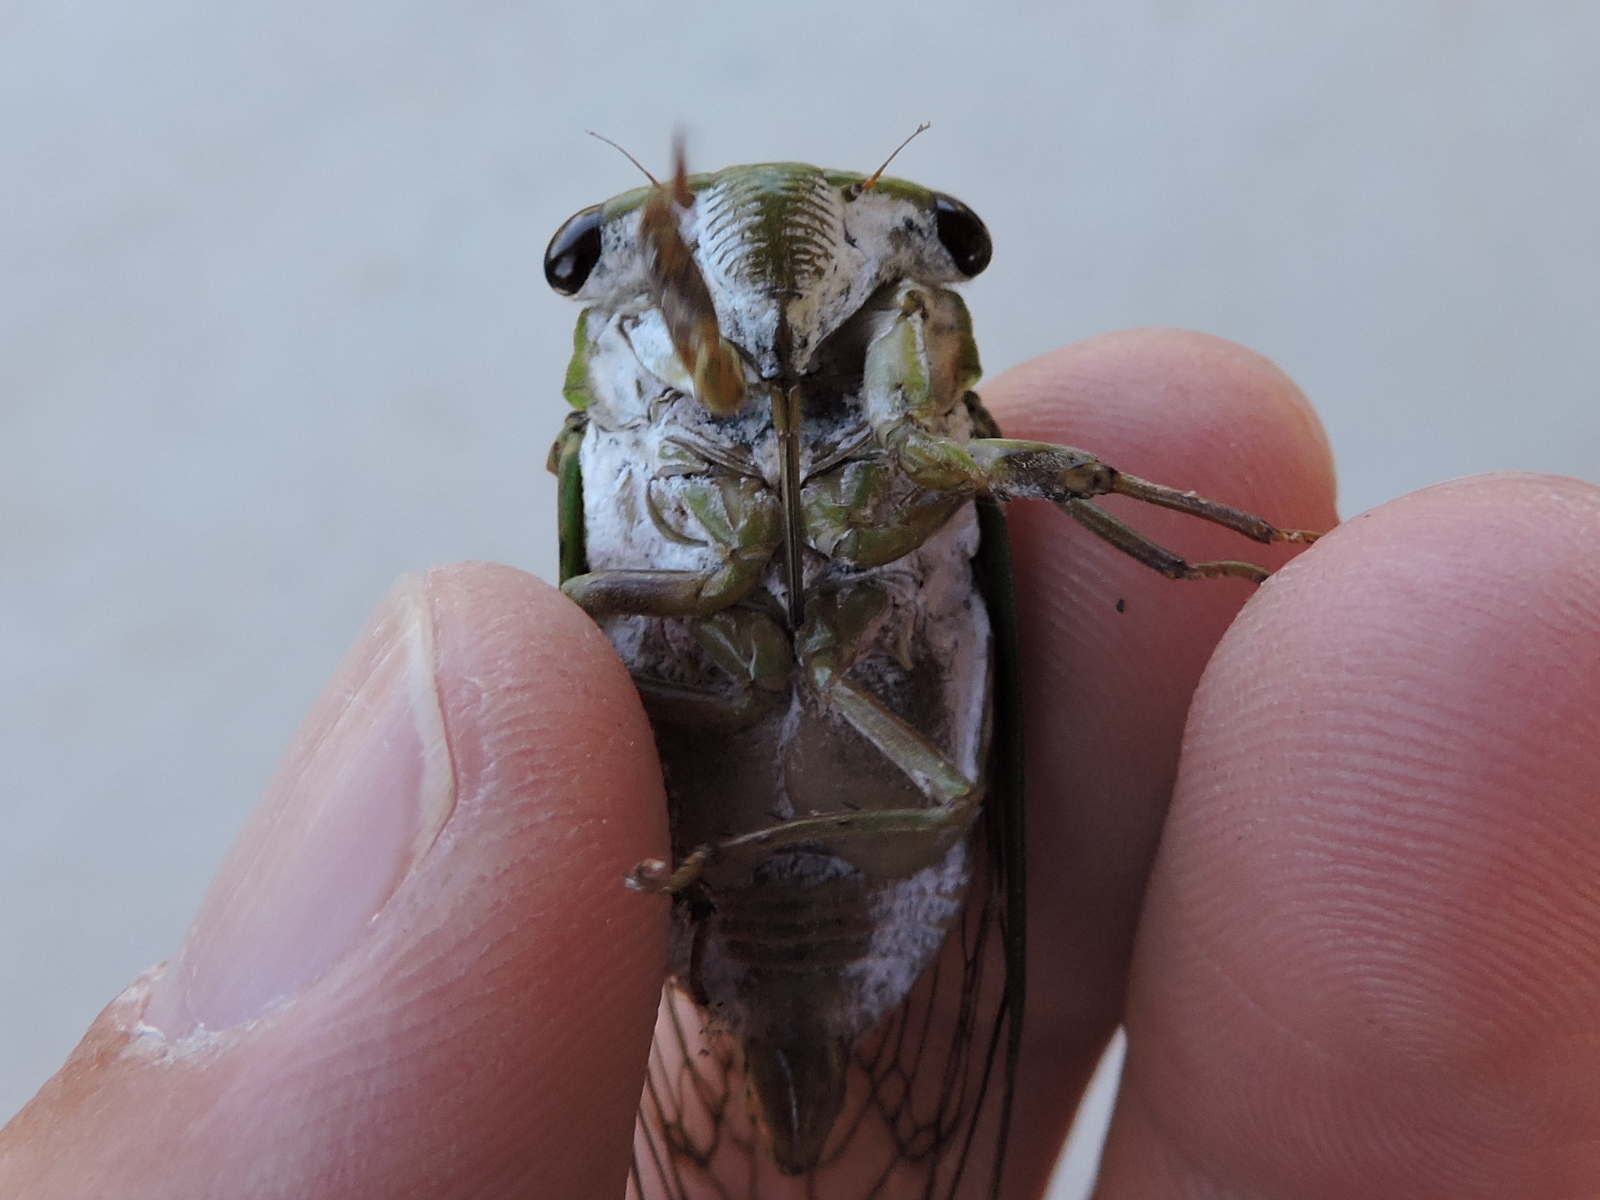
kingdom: Animalia
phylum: Arthropoda
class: Insecta
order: Hemiptera
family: Cicadidae
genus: Neotibicen
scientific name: Neotibicen superbus
